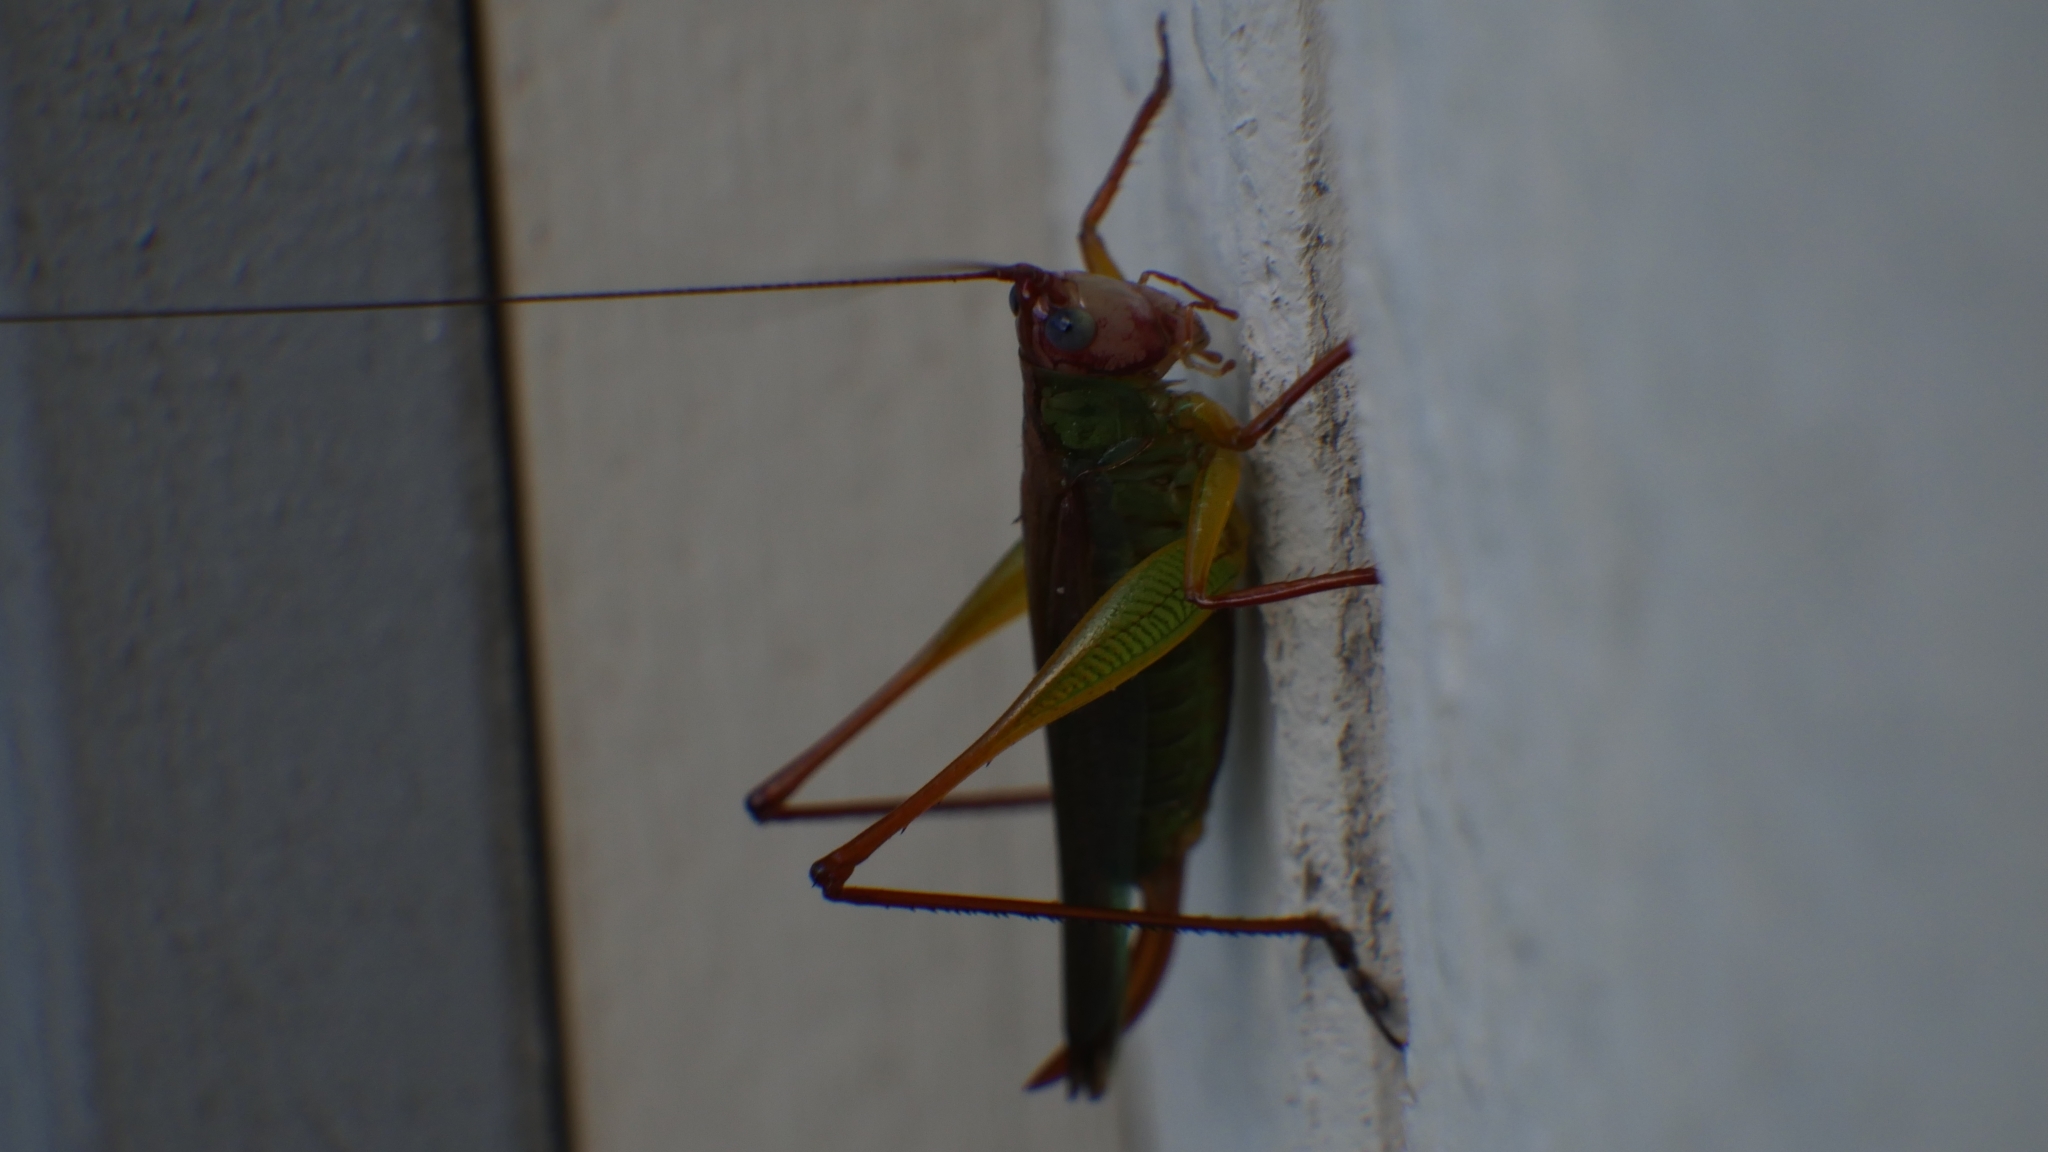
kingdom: Animalia
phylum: Arthropoda
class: Insecta
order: Orthoptera
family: Tettigoniidae
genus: Orchelimum
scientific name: Orchelimum pulchellum
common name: Handsome meadow katydid
